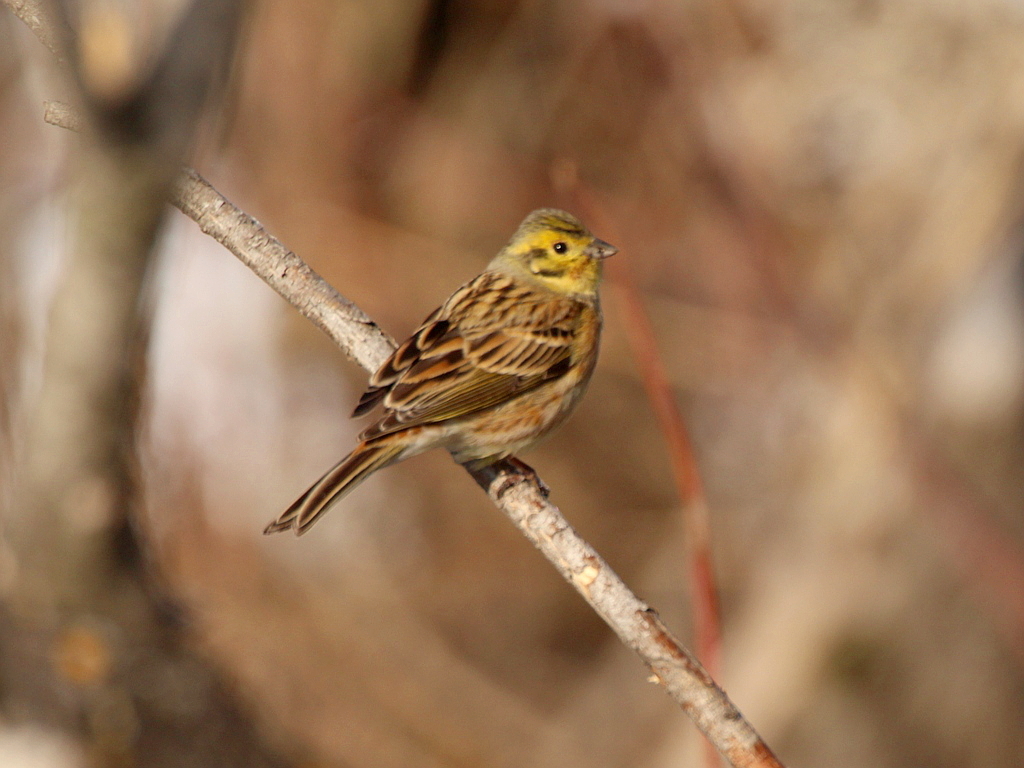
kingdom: Animalia
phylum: Chordata
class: Aves
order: Passeriformes
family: Emberizidae
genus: Emberiza
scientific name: Emberiza
